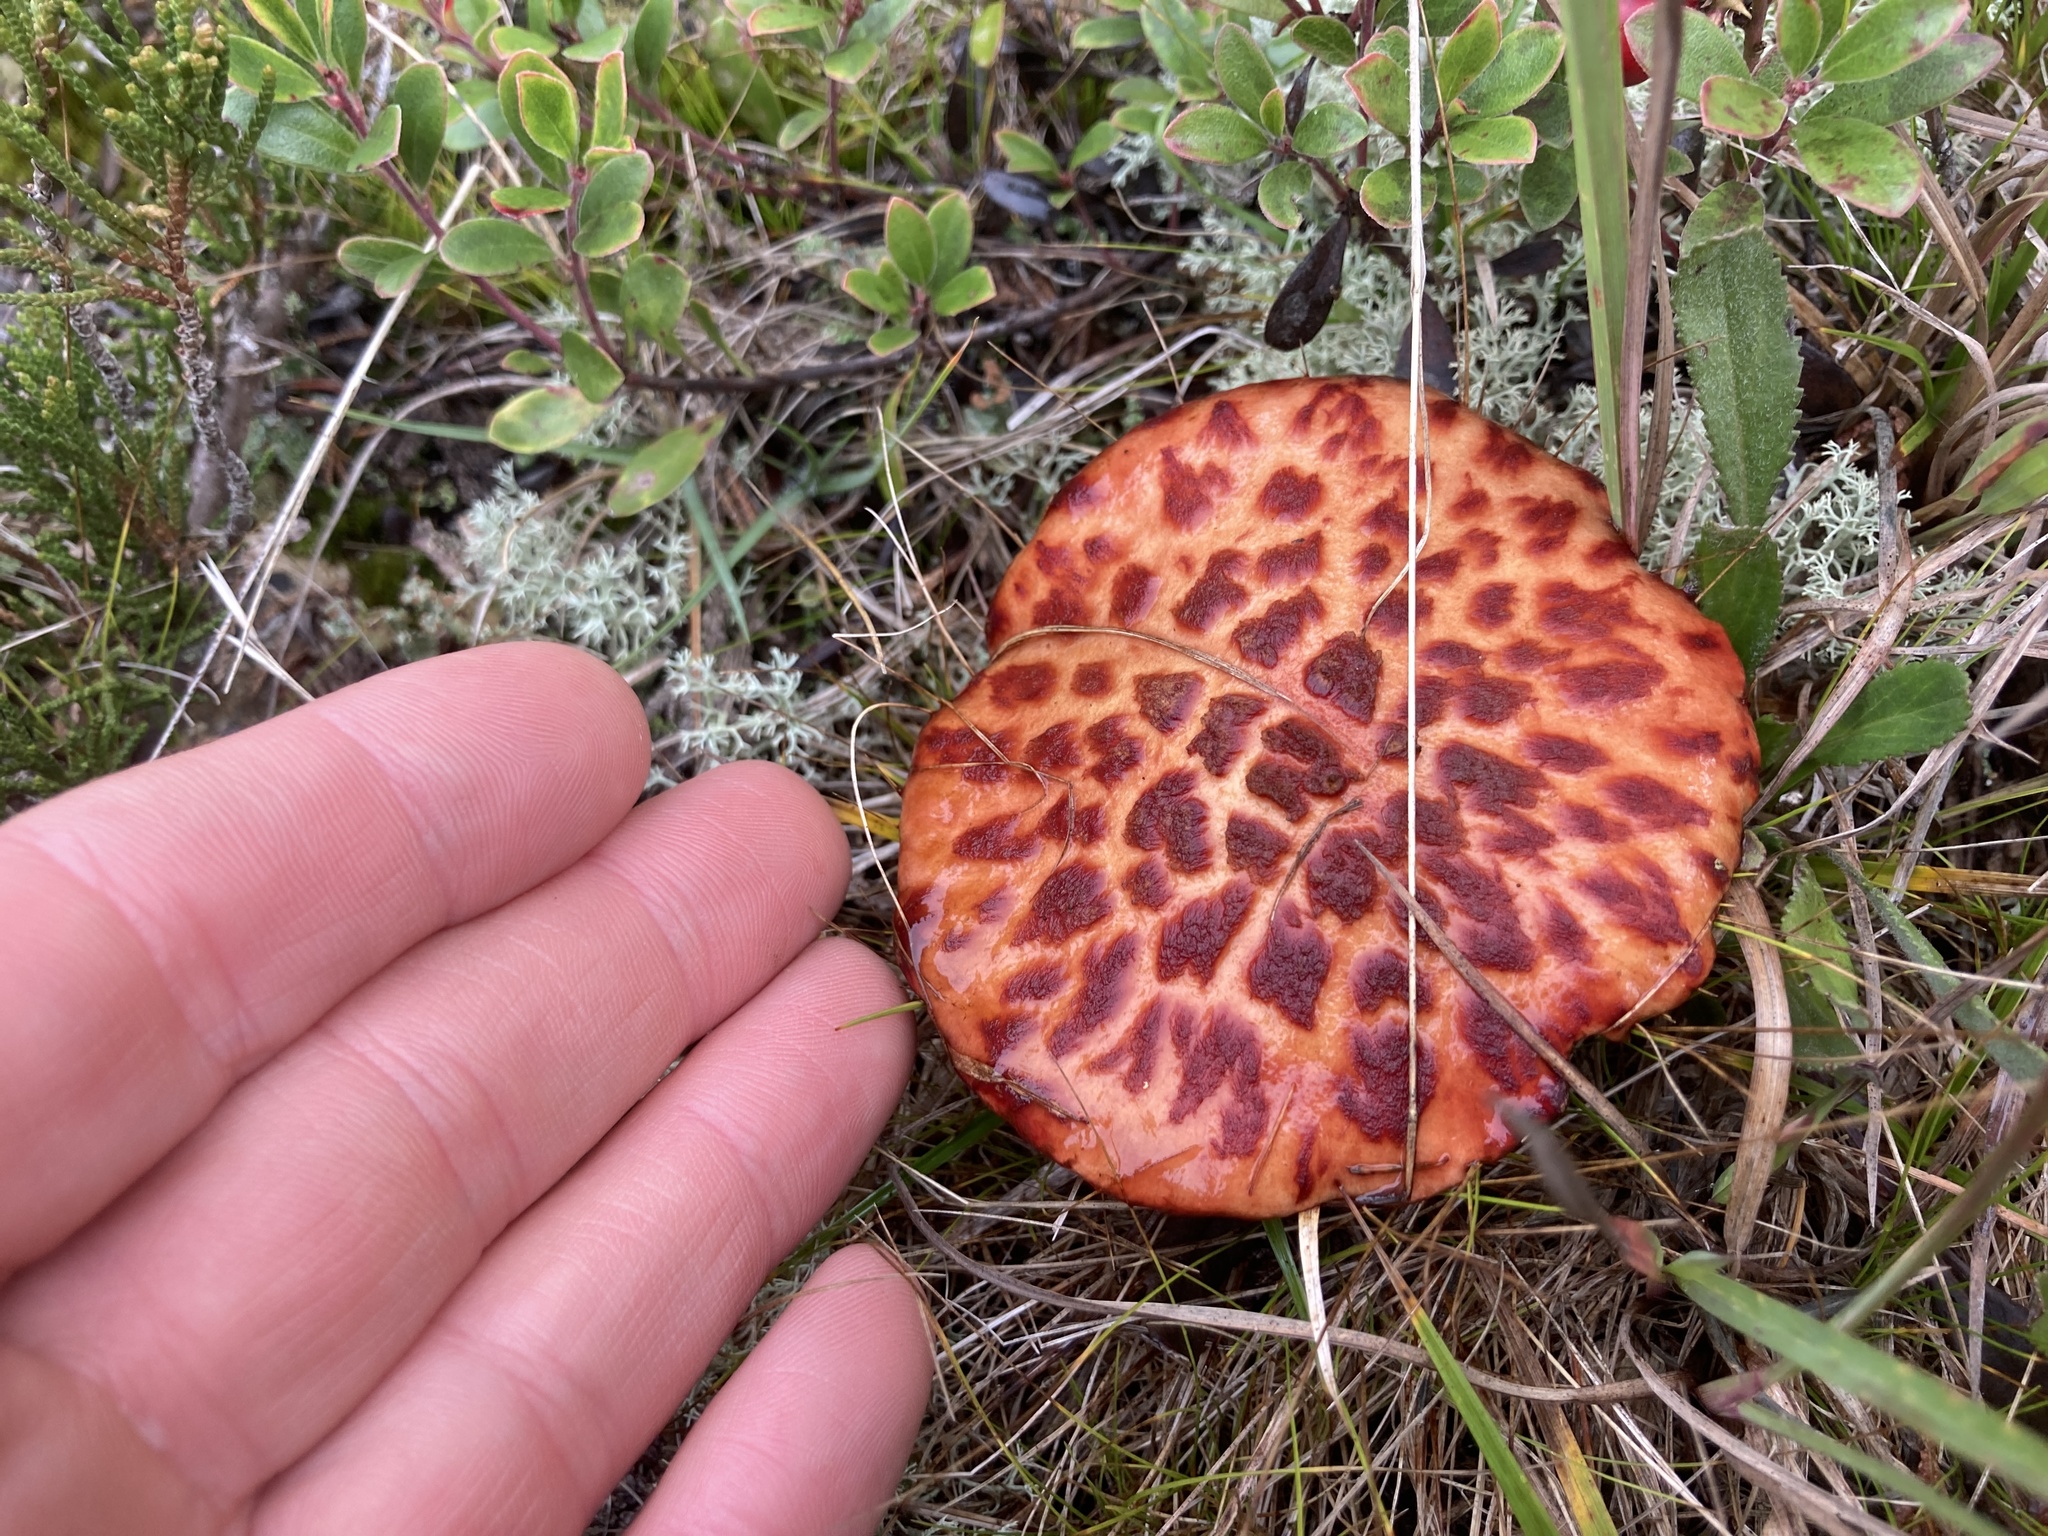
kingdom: Fungi
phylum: Basidiomycota
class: Agaricomycetes
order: Boletales
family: Suillaceae
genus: Boletinus
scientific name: Boletinus spectabilis
